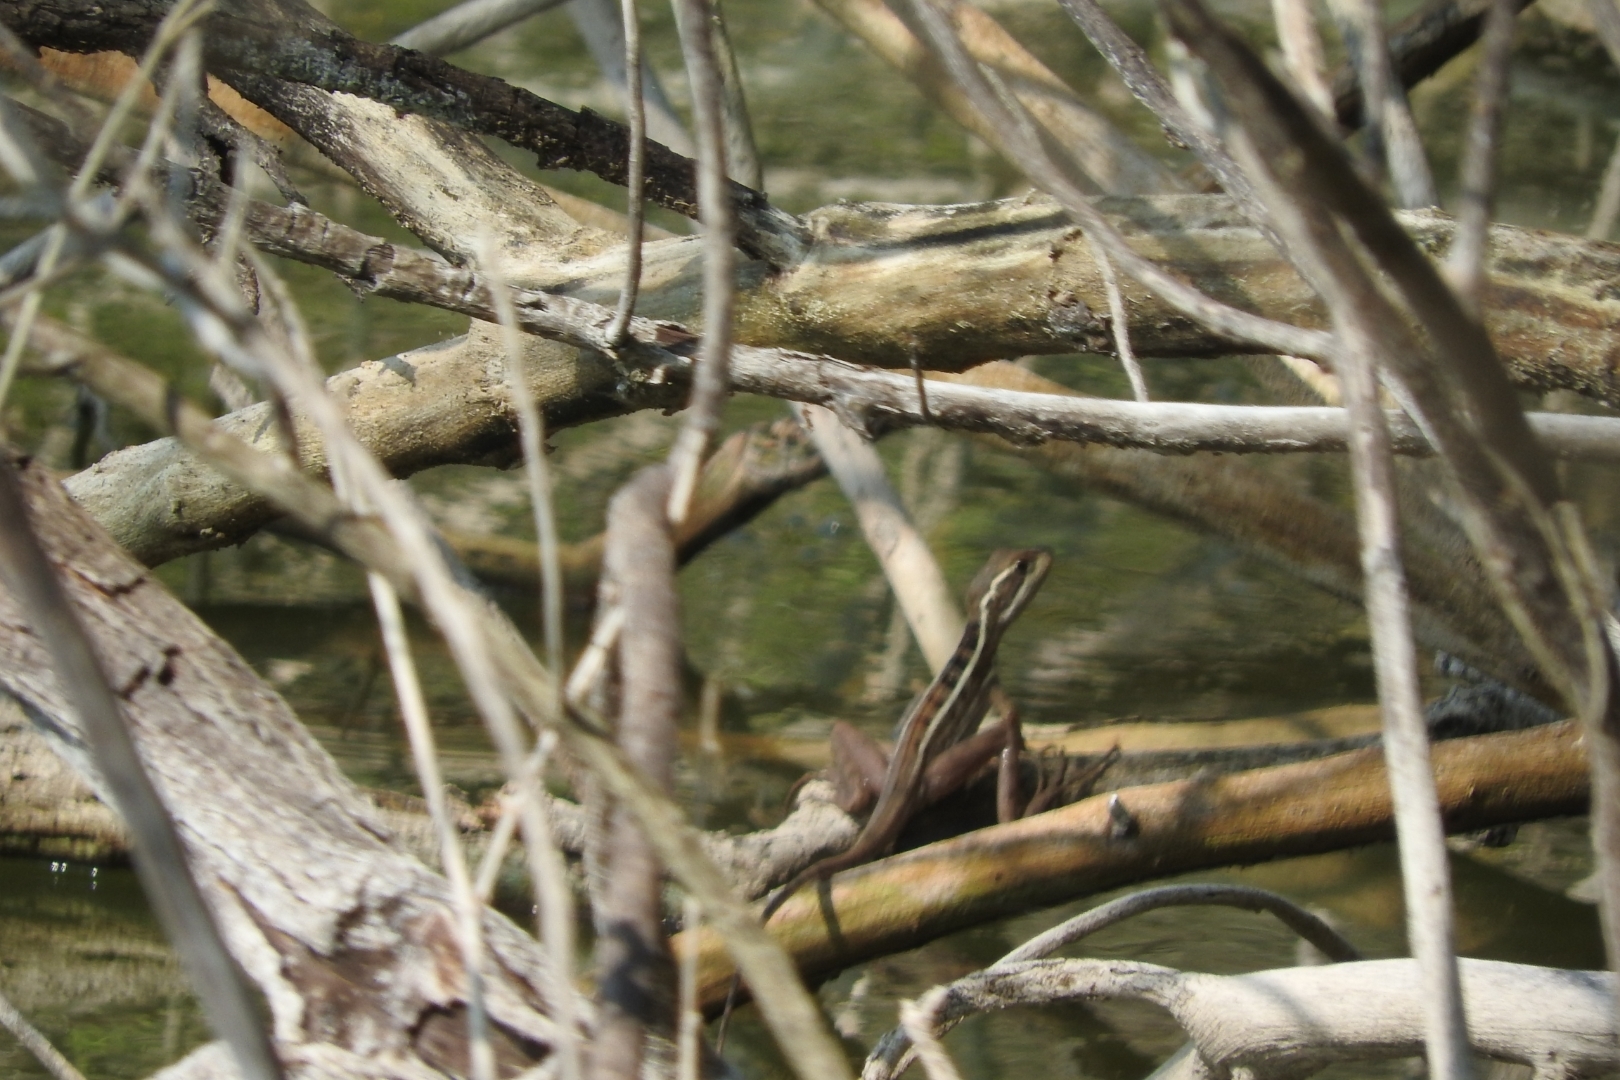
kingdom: Animalia
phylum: Chordata
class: Squamata
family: Corytophanidae
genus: Basiliscus
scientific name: Basiliscus vittatus
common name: Brown basilisk
